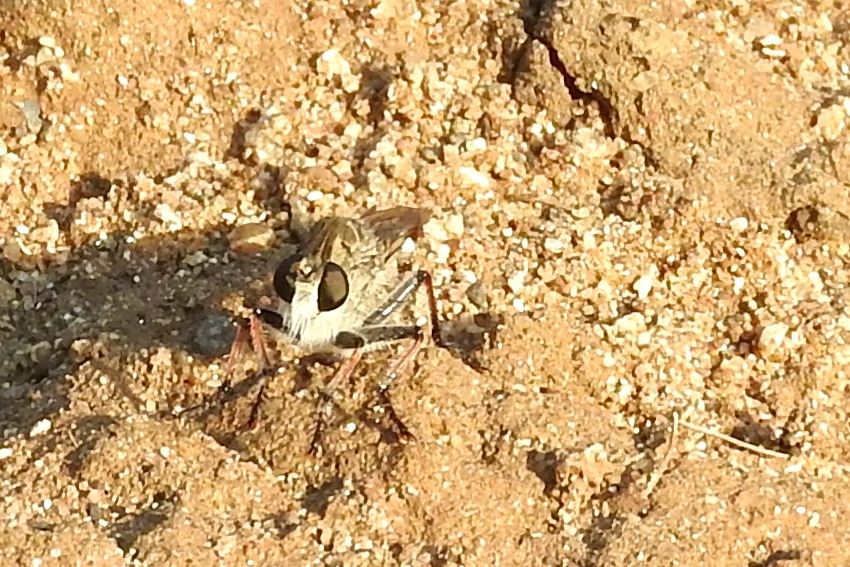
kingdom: Animalia
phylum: Arthropoda
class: Insecta
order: Diptera
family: Asilidae
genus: Efferia
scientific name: Efferia
